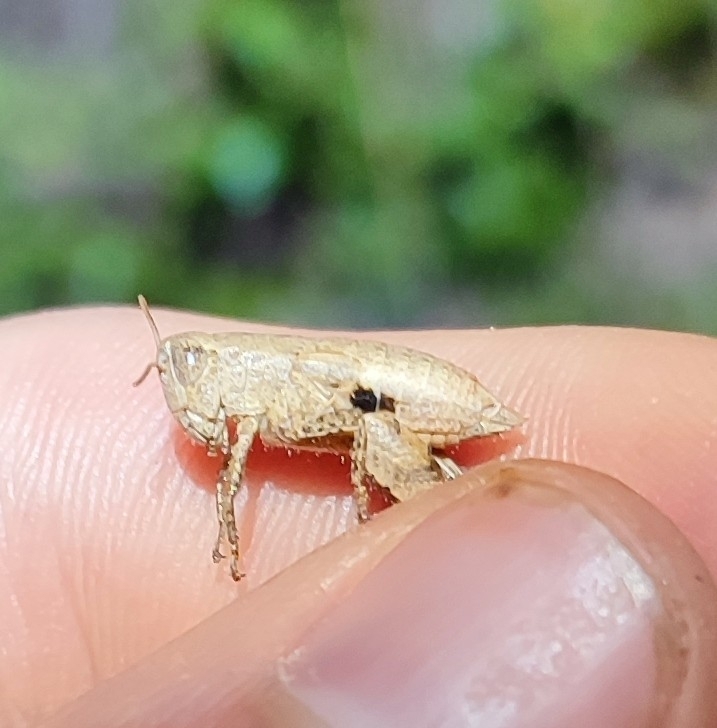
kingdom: Animalia
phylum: Arthropoda
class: Insecta
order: Orthoptera
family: Acrididae
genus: Pezotettix
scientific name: Pezotettix giornae
